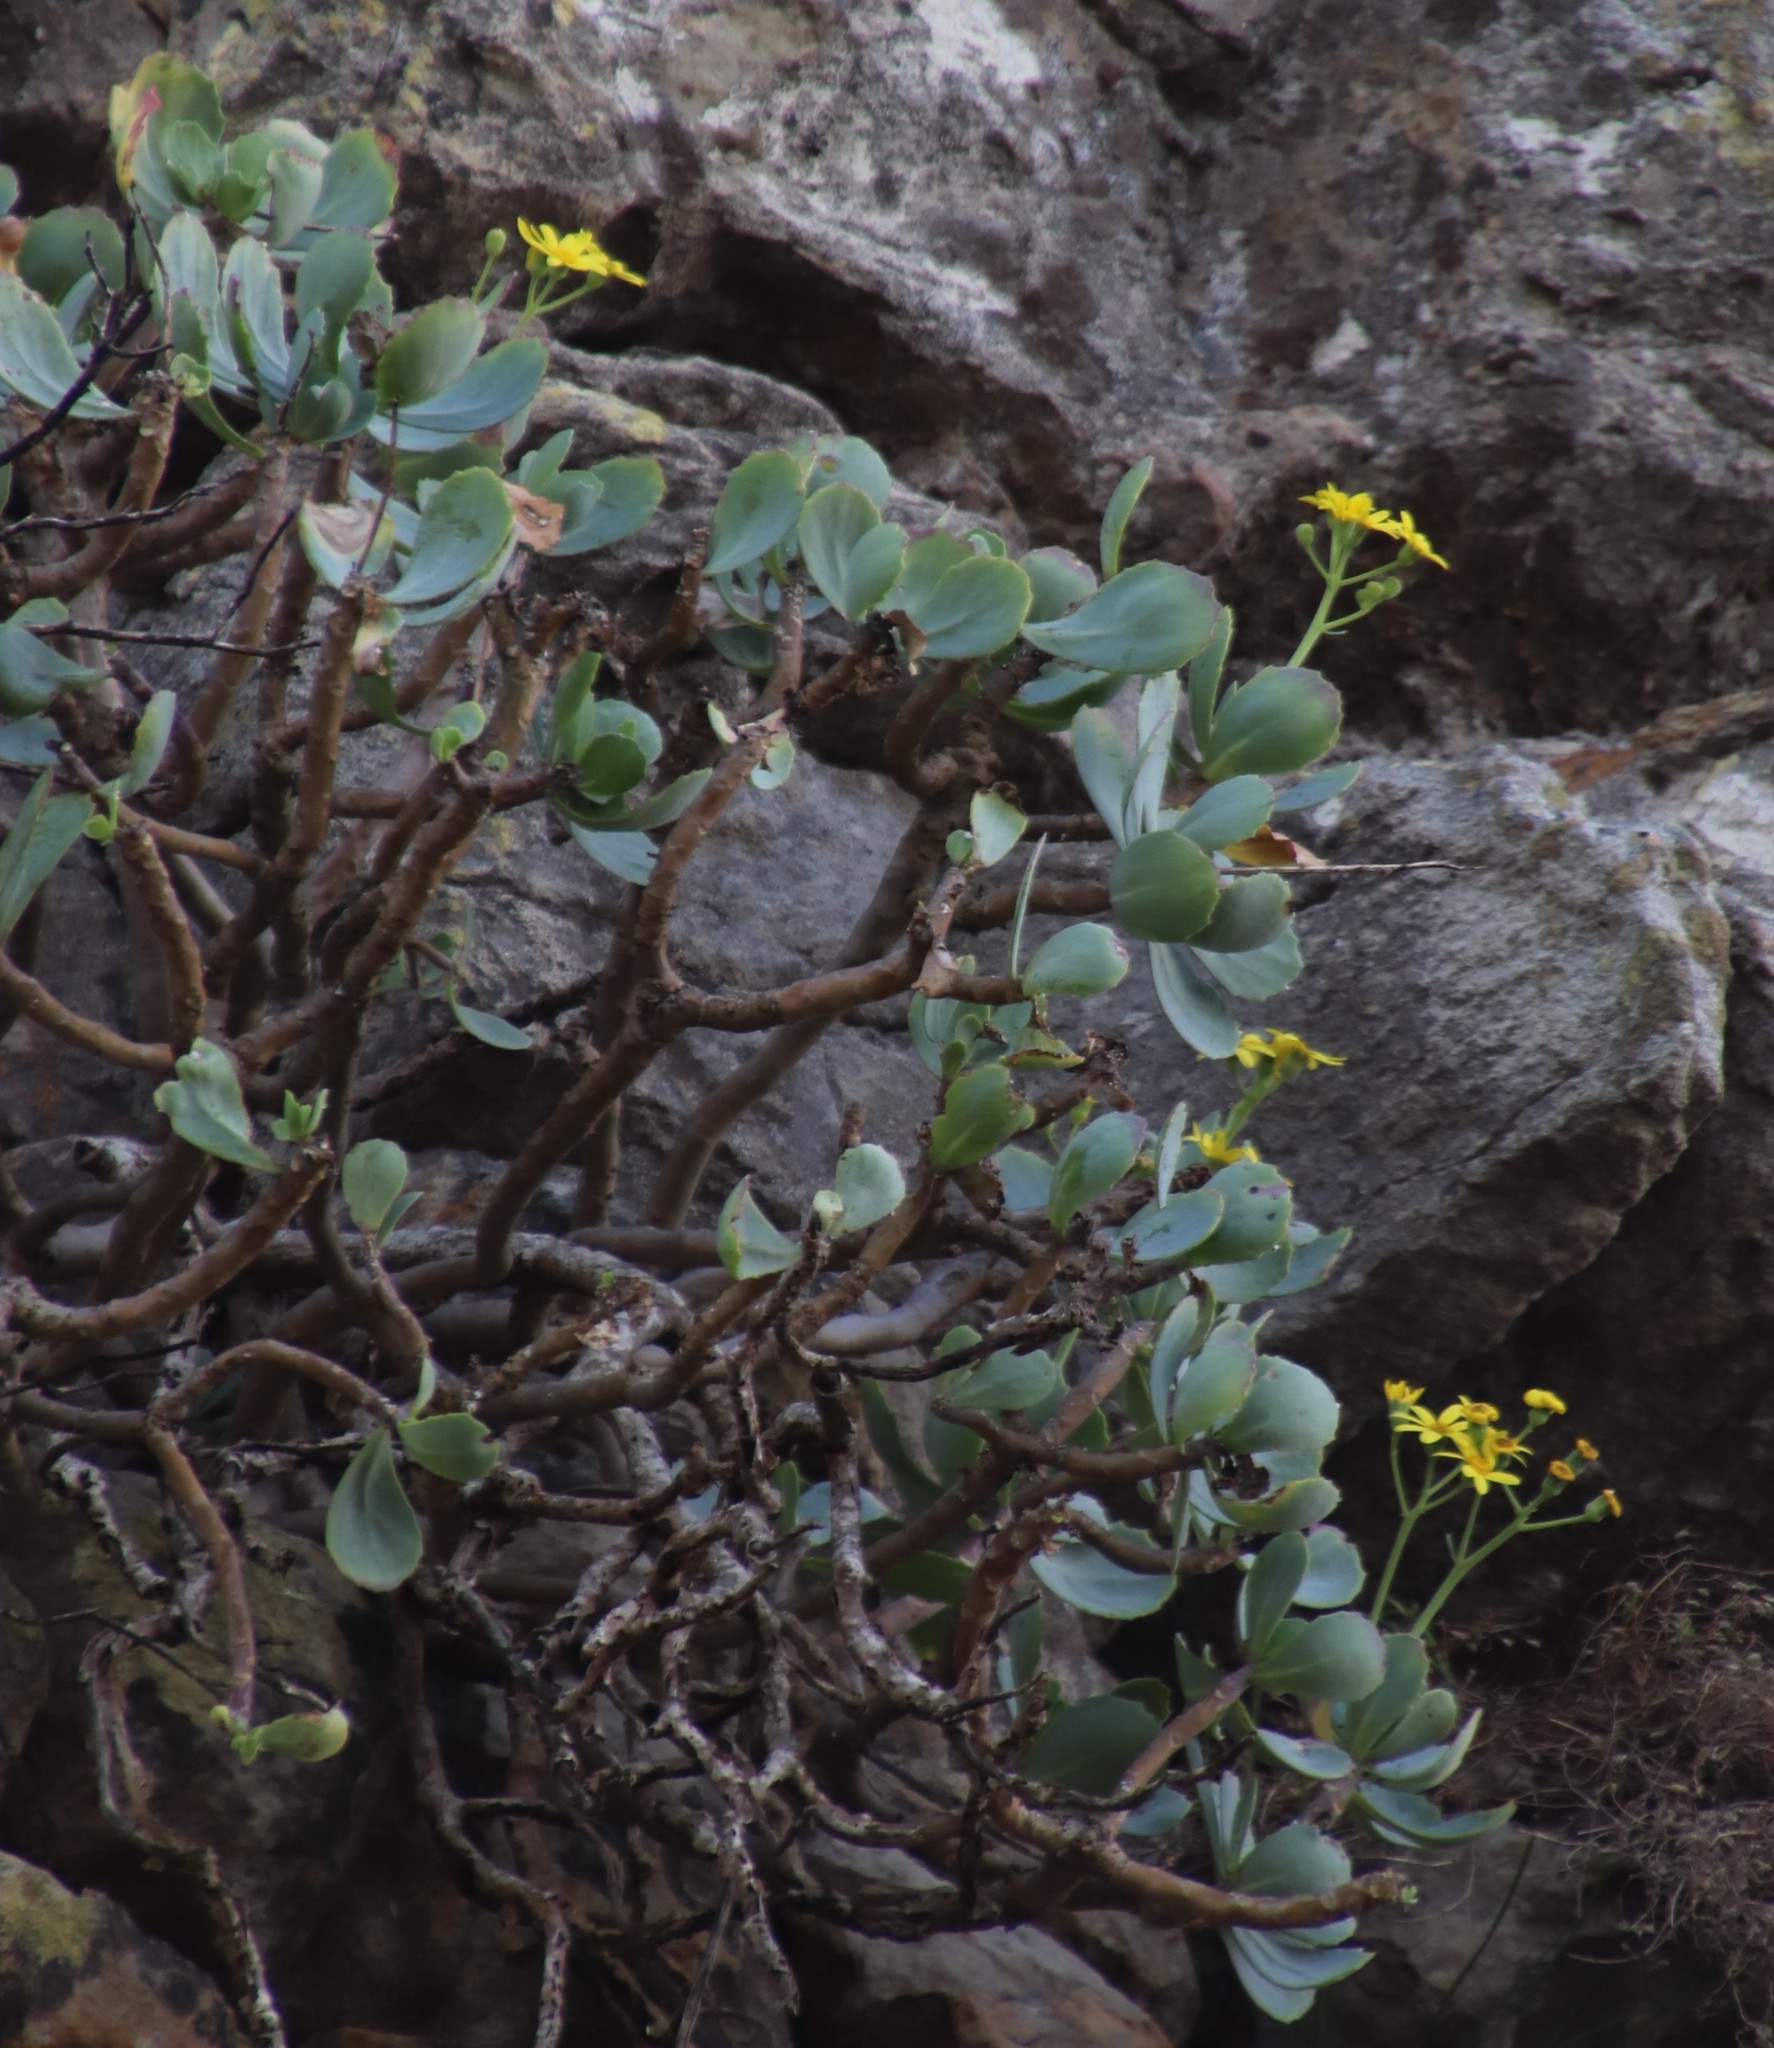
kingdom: Plantae
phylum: Tracheophyta
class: Magnoliopsida
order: Asterales
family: Asteraceae
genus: Othonna
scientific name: Othonna dentata
